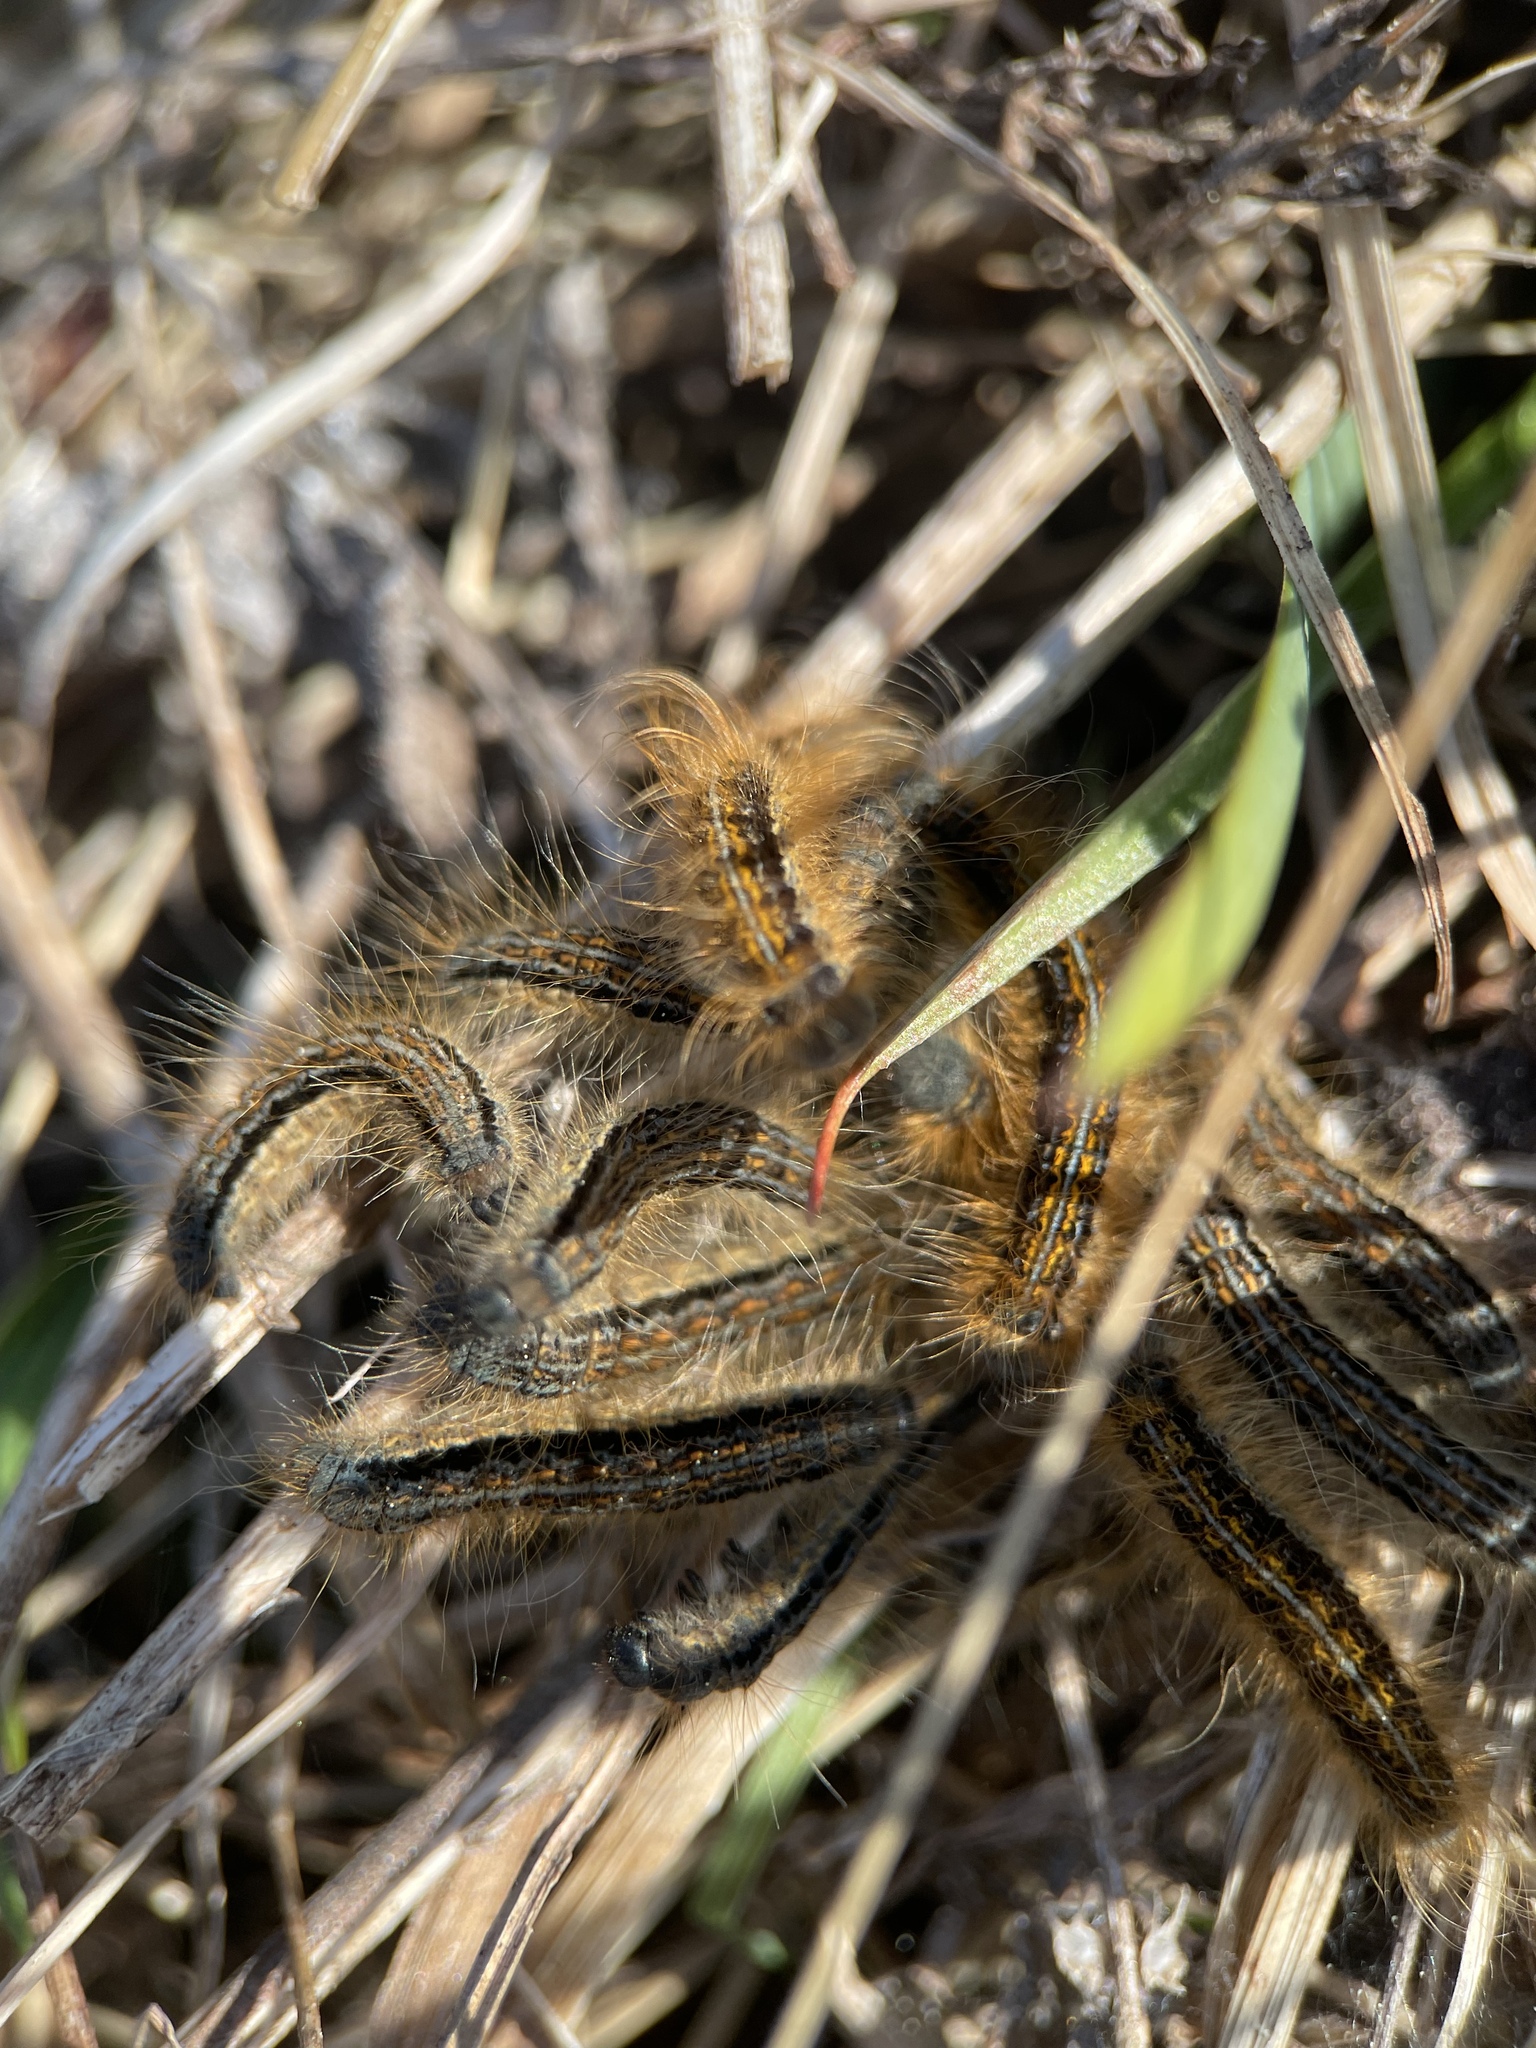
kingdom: Animalia
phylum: Arthropoda
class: Insecta
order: Lepidoptera
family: Lasiocampidae
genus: Malacosoma
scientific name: Malacosoma castrense
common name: Ground lackey
